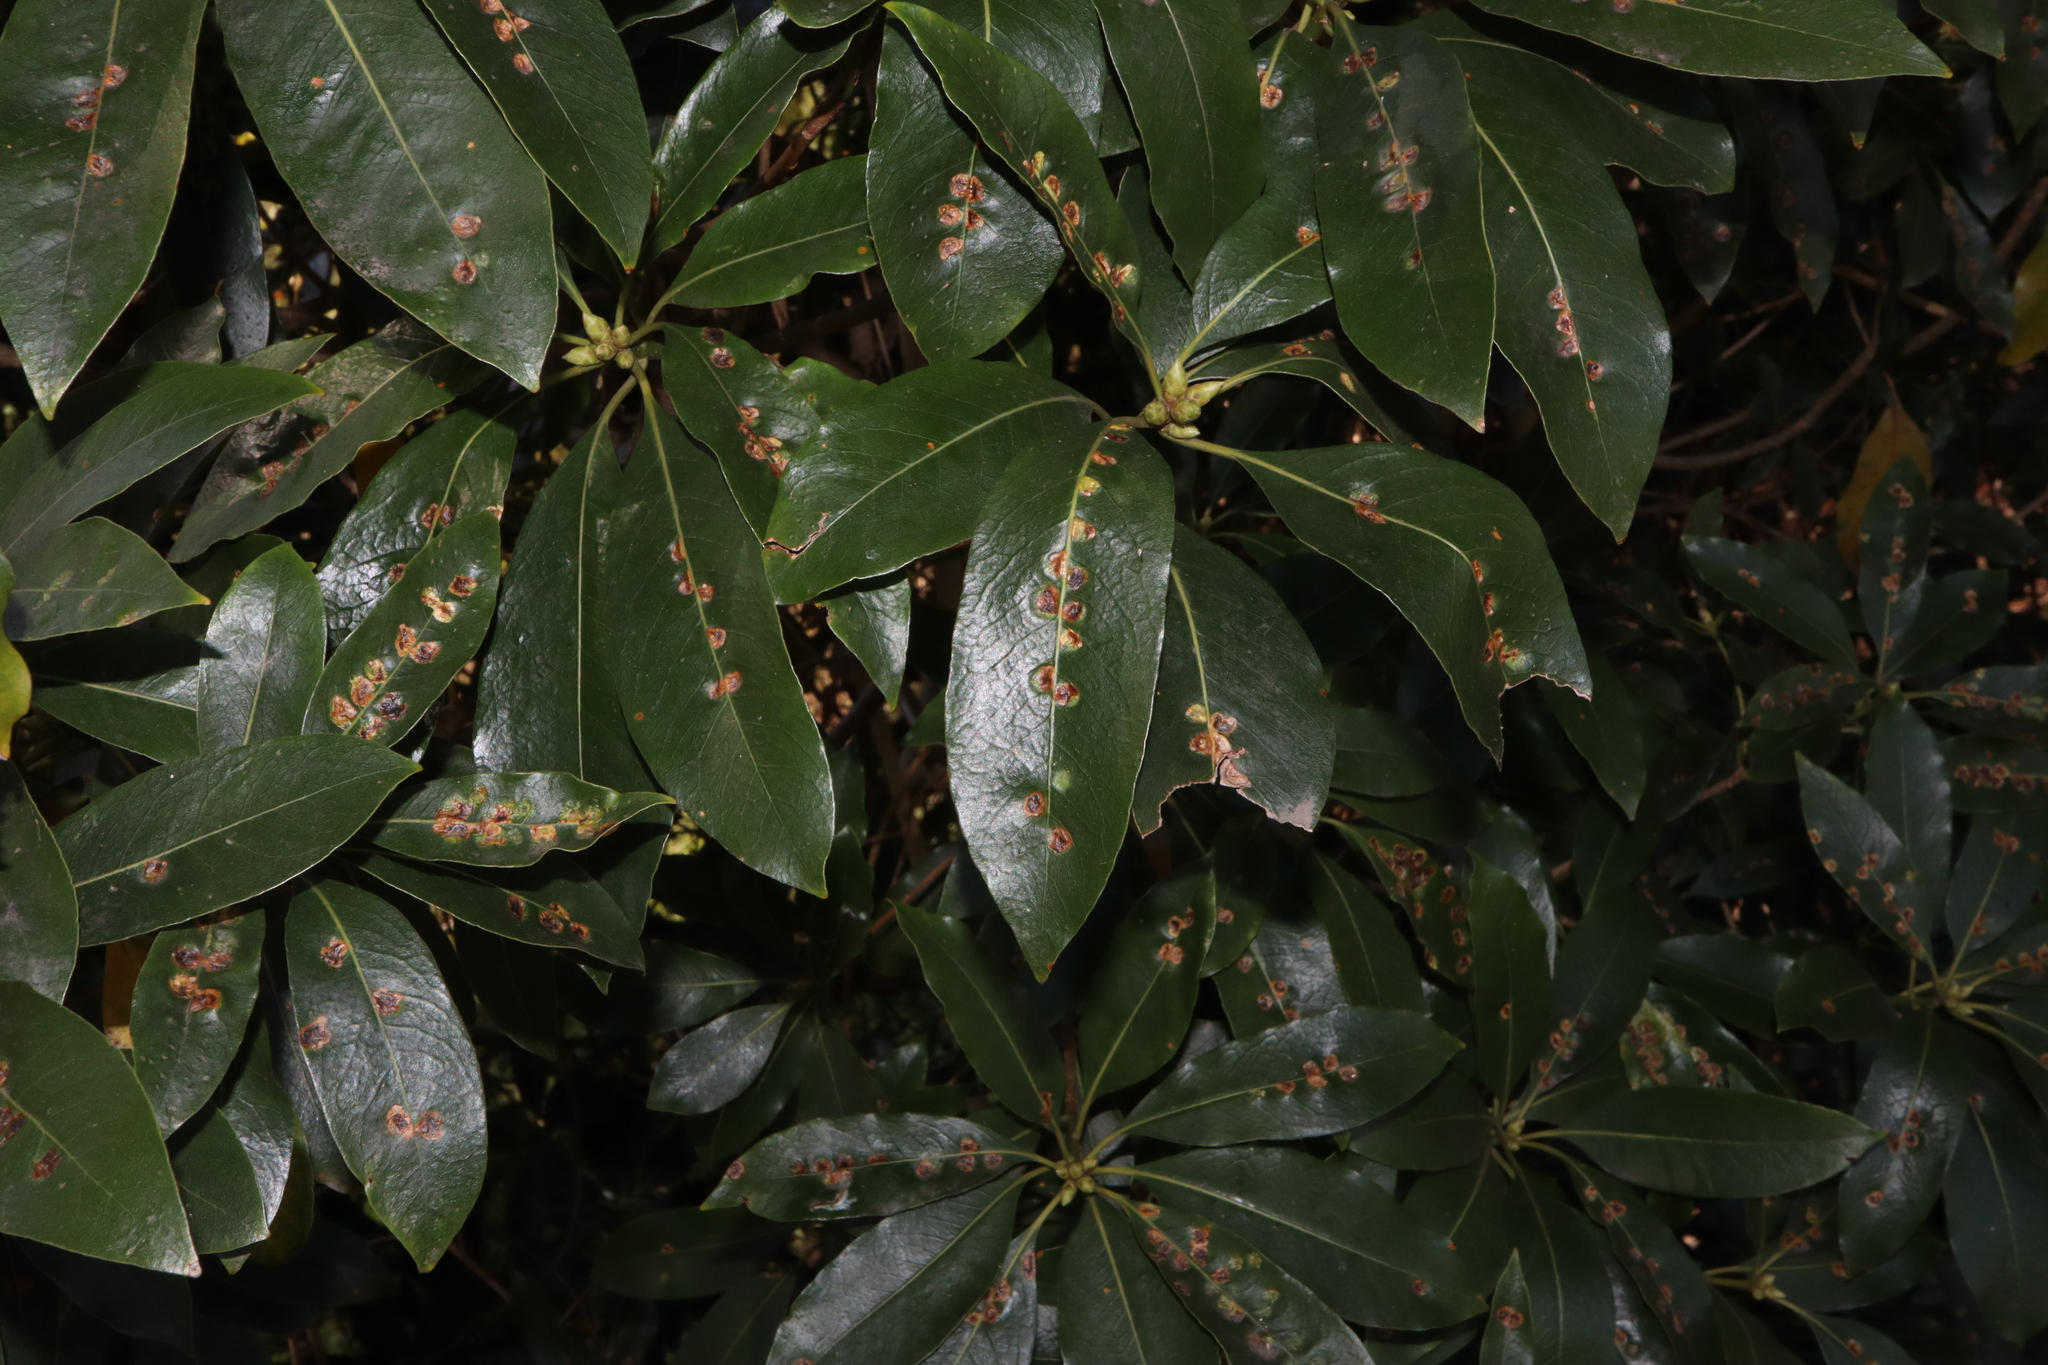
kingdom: Animalia
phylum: Arthropoda
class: Insecta
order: Diptera
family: Agromyzidae
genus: Phytoliriomyza
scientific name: Phytoliriomyza pittosporophylli
